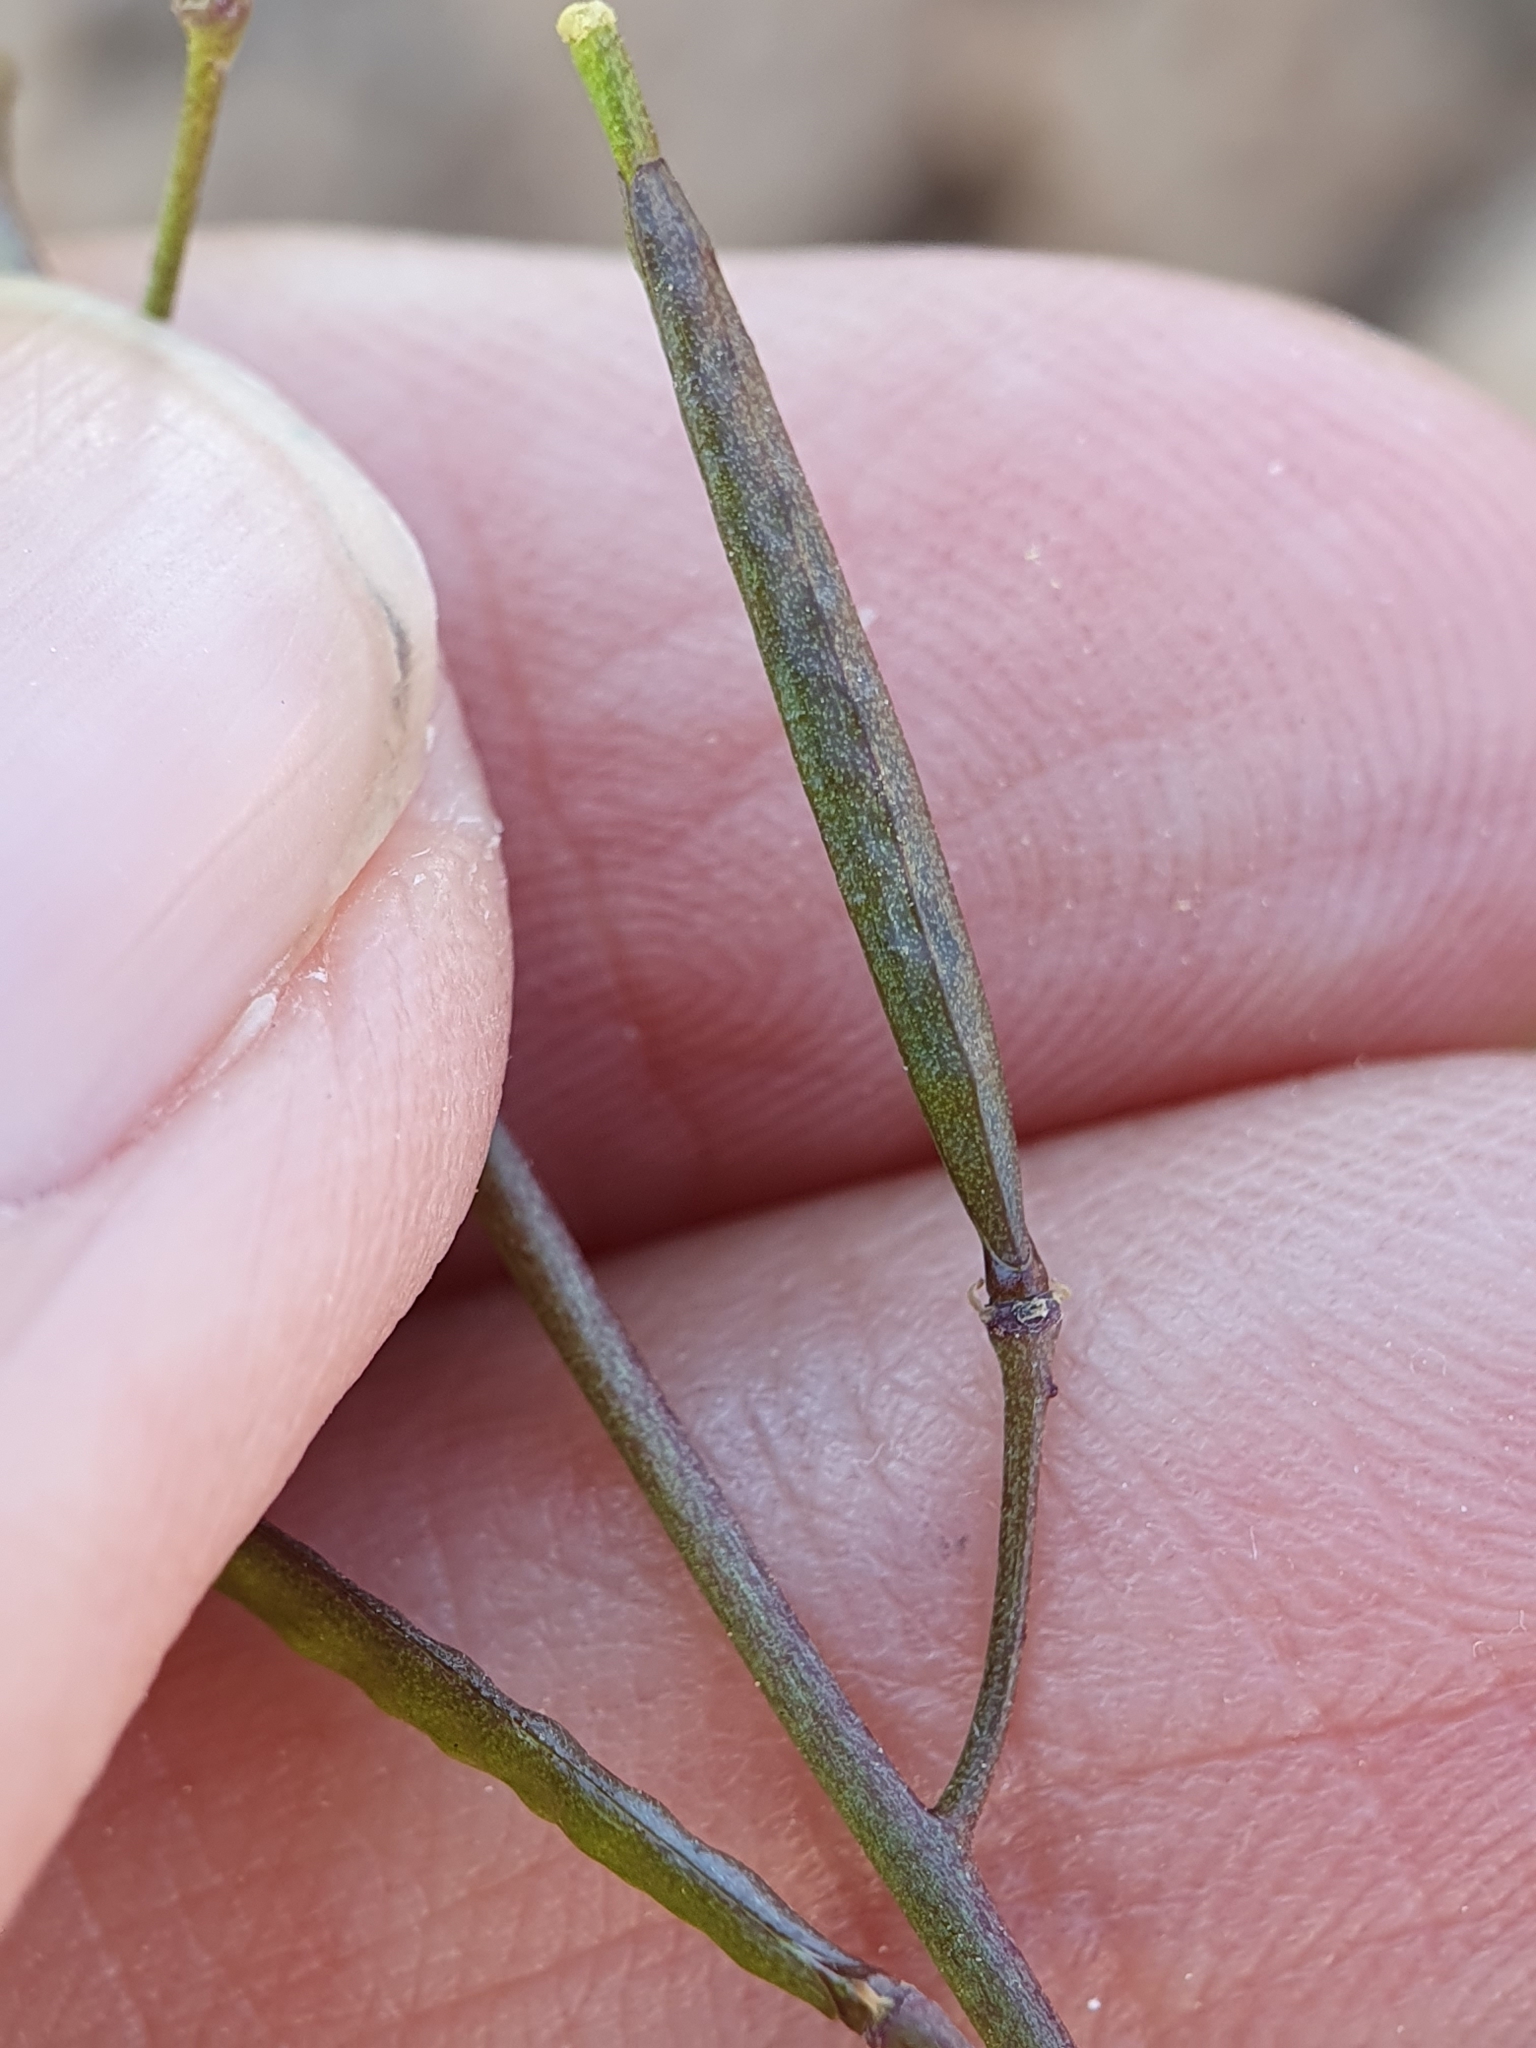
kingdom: Plantae
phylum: Tracheophyta
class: Magnoliopsida
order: Brassicales
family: Brassicaceae
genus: Diplotaxis
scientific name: Diplotaxis muralis
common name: Annual wall-rocket
